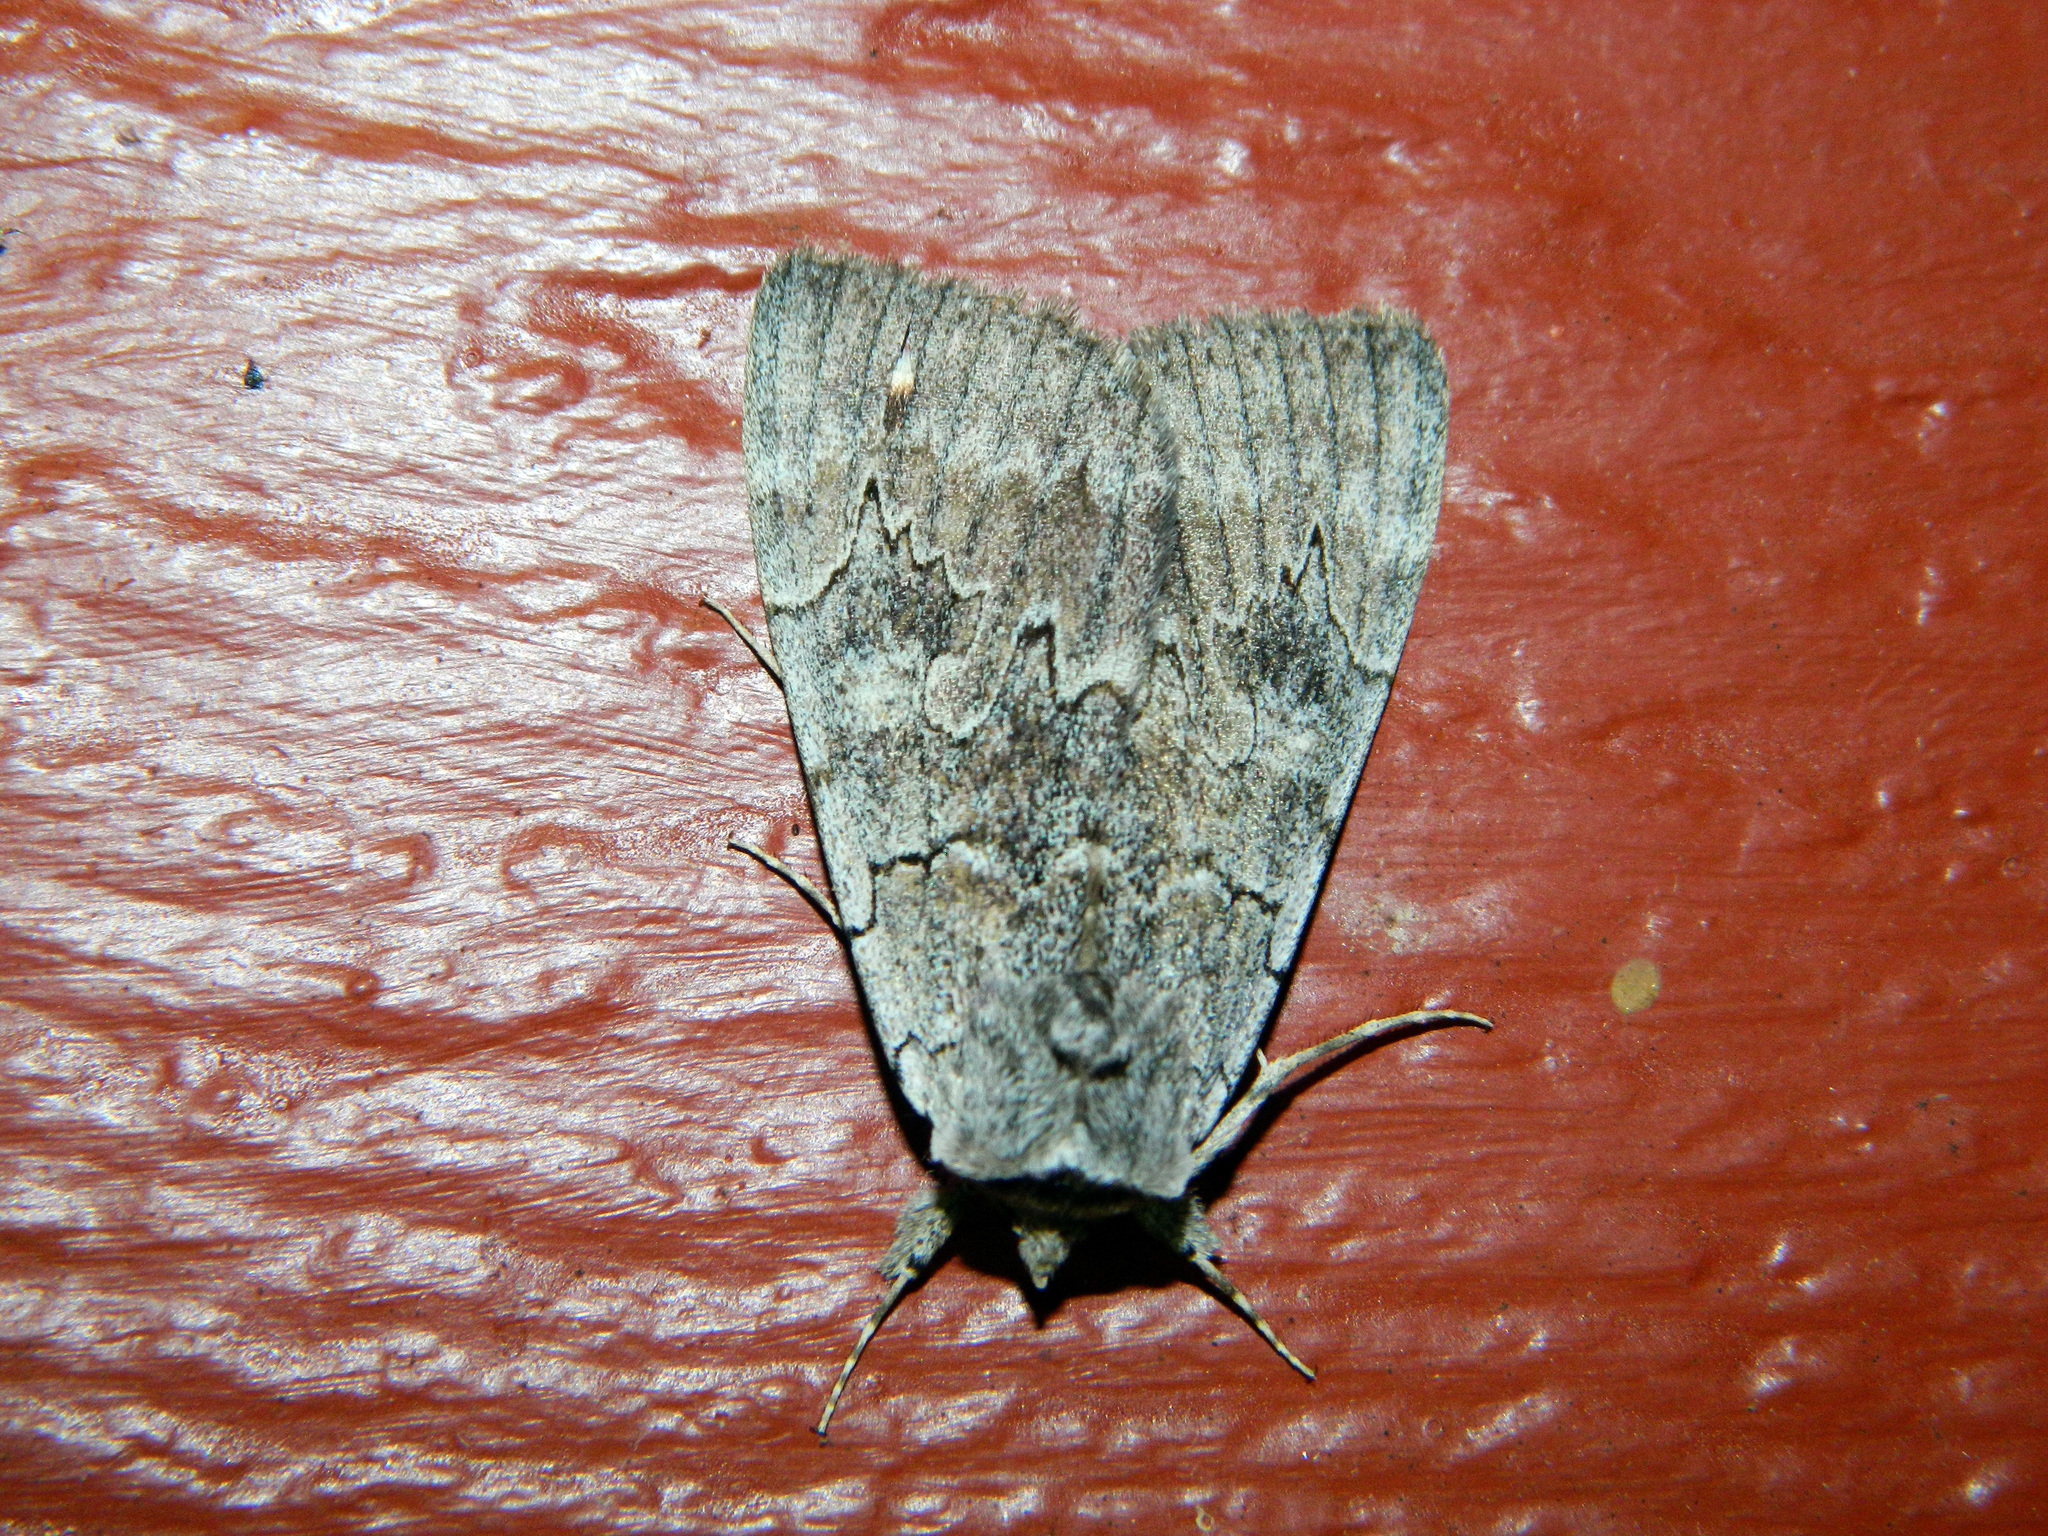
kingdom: Animalia
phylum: Arthropoda
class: Insecta
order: Lepidoptera
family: Erebidae
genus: Catocala
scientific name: Catocala concumbens
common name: Pink underwing
